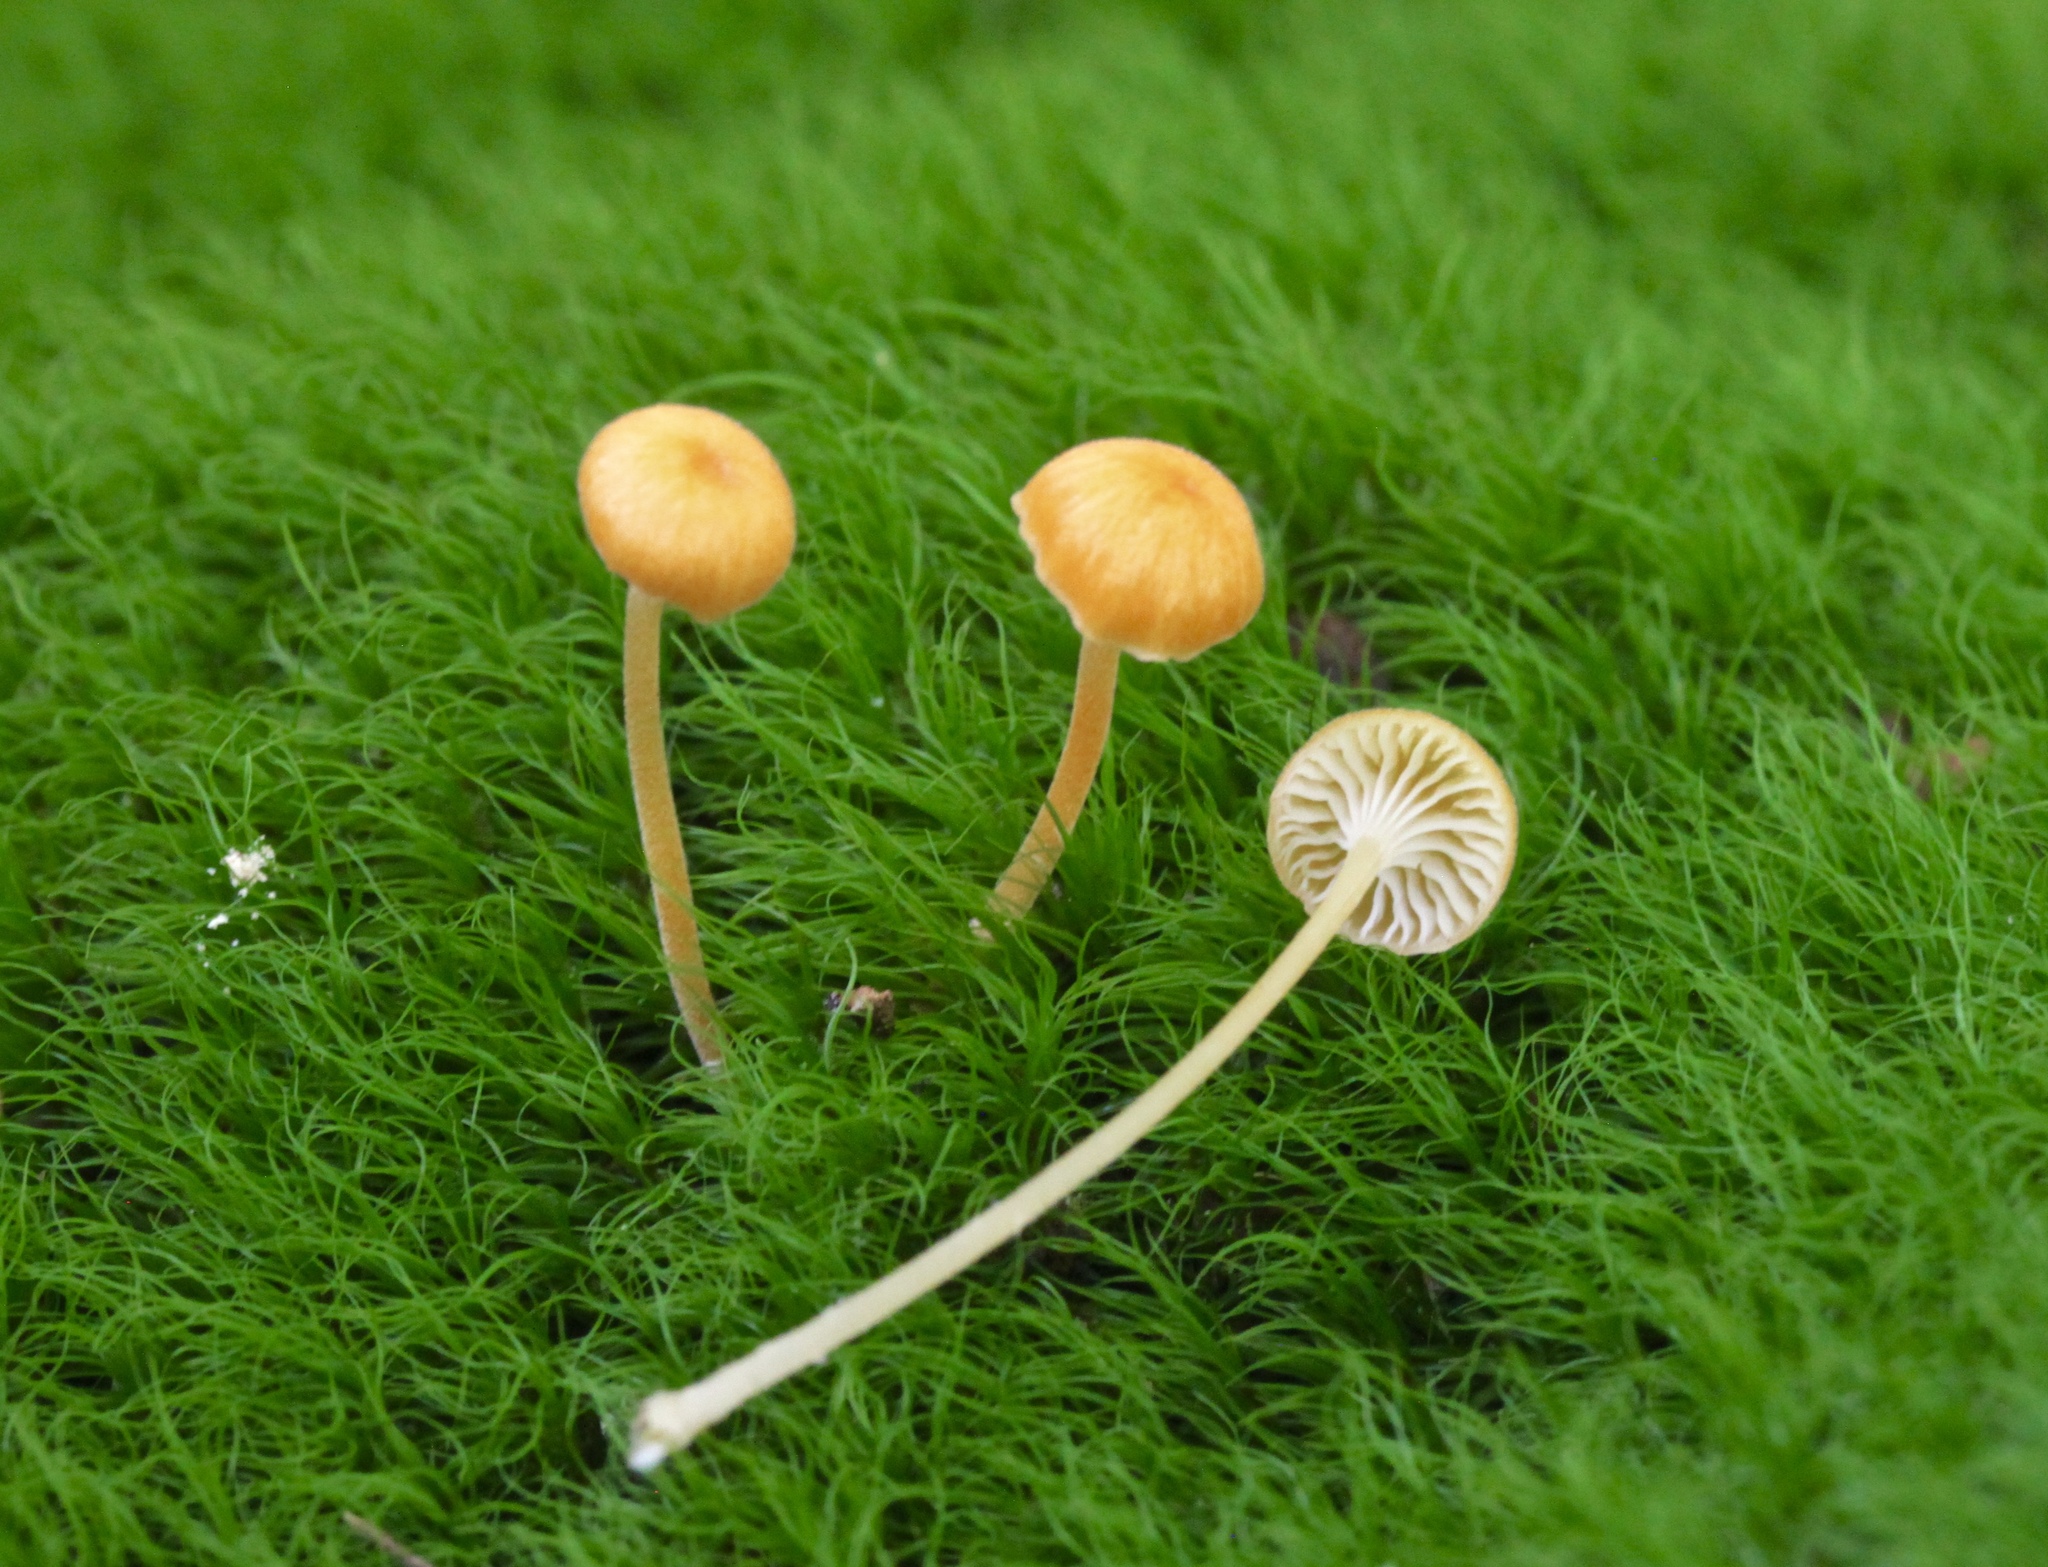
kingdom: Fungi
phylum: Basidiomycota
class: Agaricomycetes
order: Hymenochaetales
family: Rickenellaceae
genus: Rickenella
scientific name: Rickenella fibula
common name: Orange mosscap
